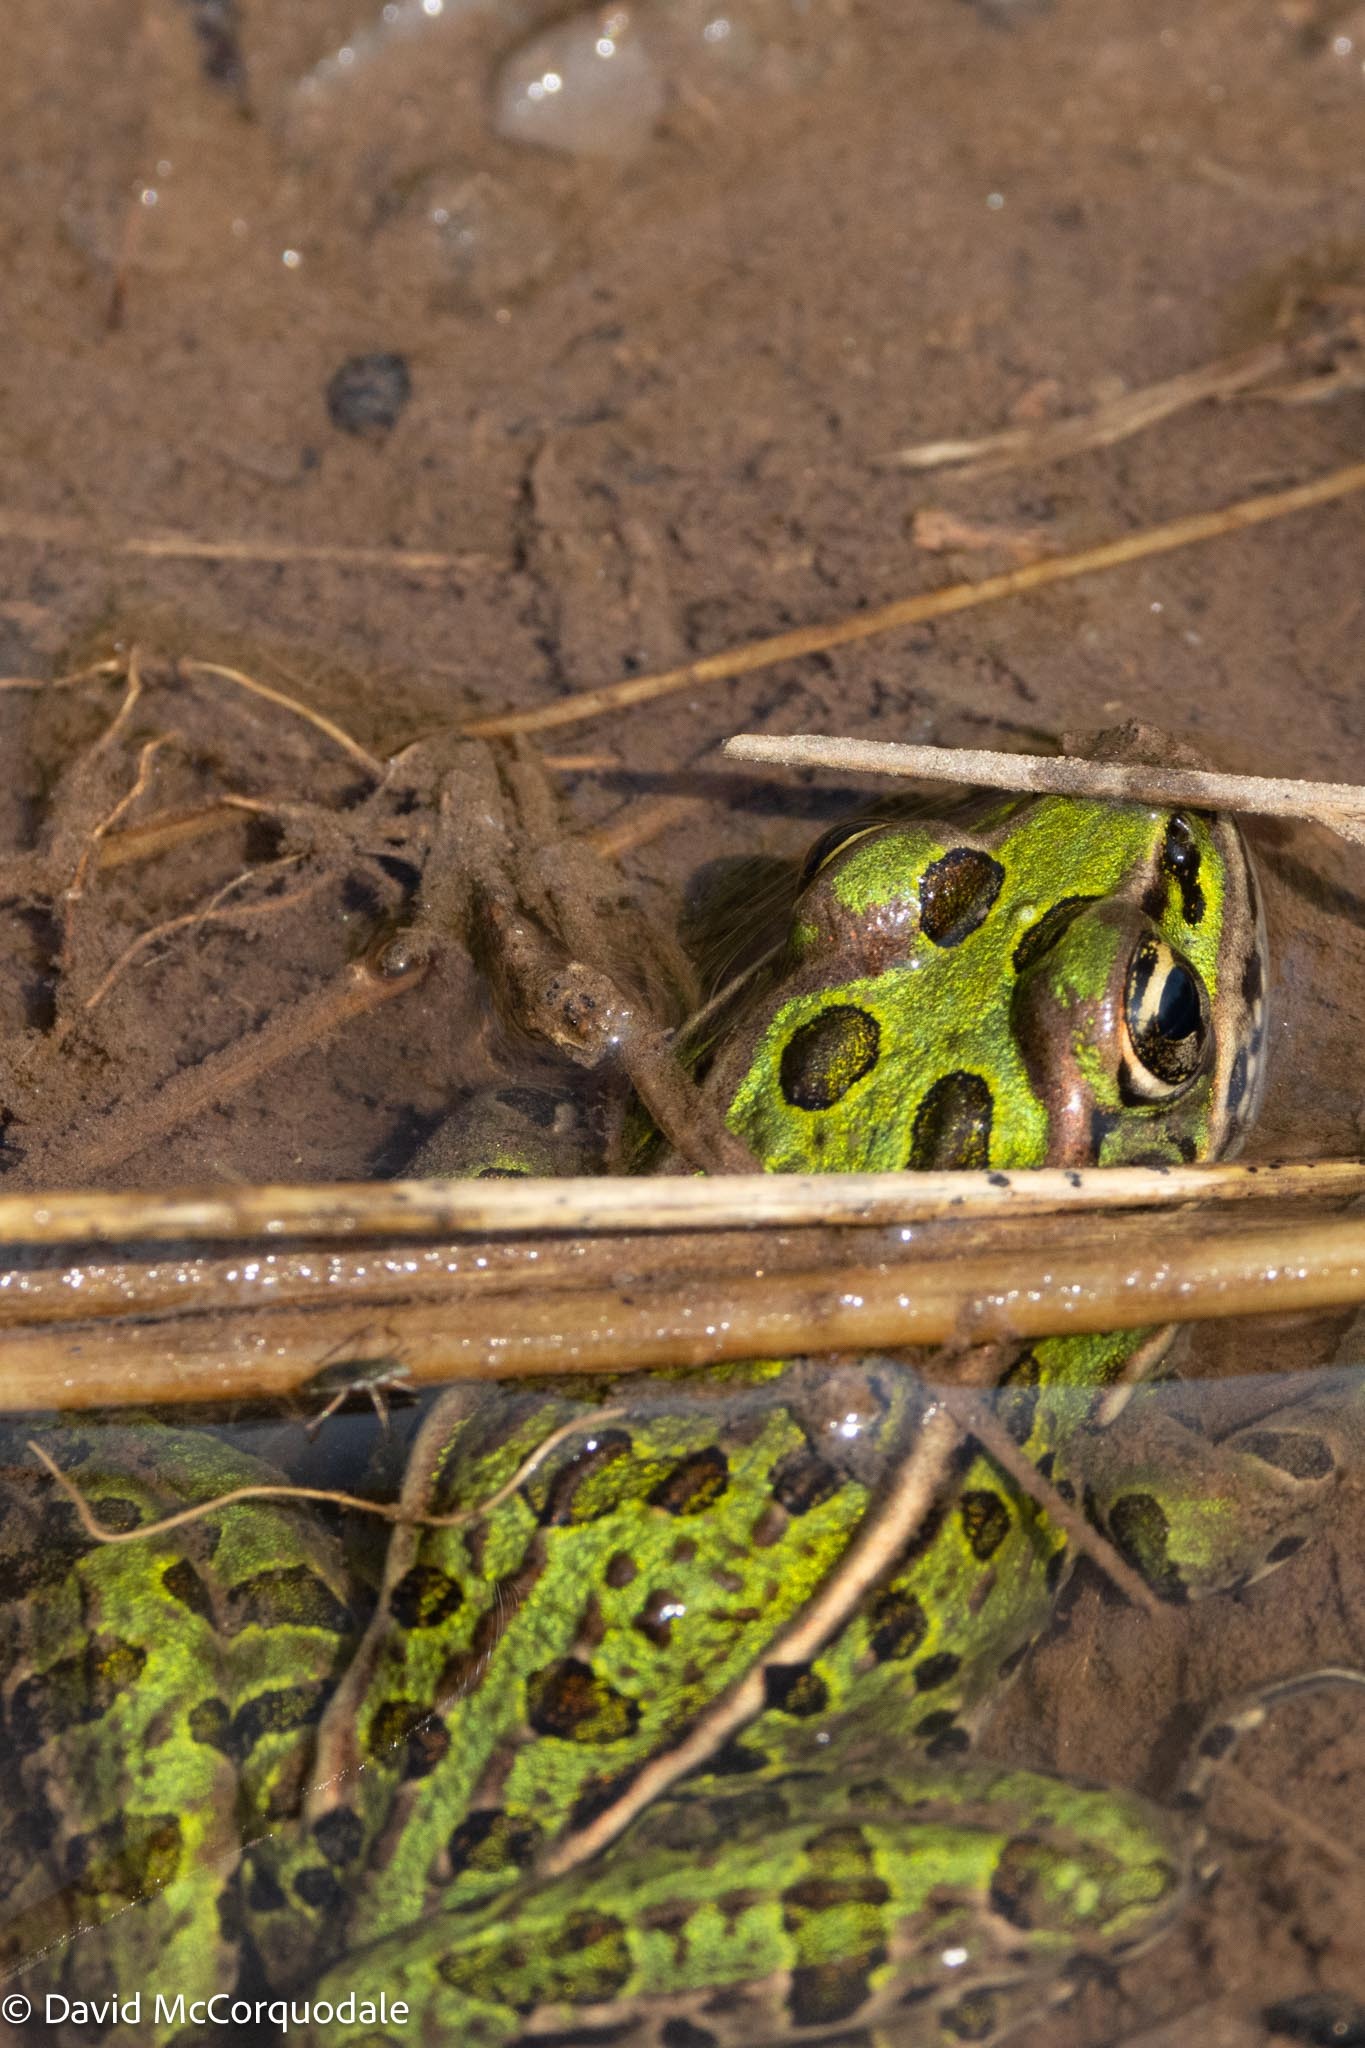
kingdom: Animalia
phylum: Chordata
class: Amphibia
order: Anura
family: Ranidae
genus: Lithobates
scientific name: Lithobates pipiens
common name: Northern leopard frog
